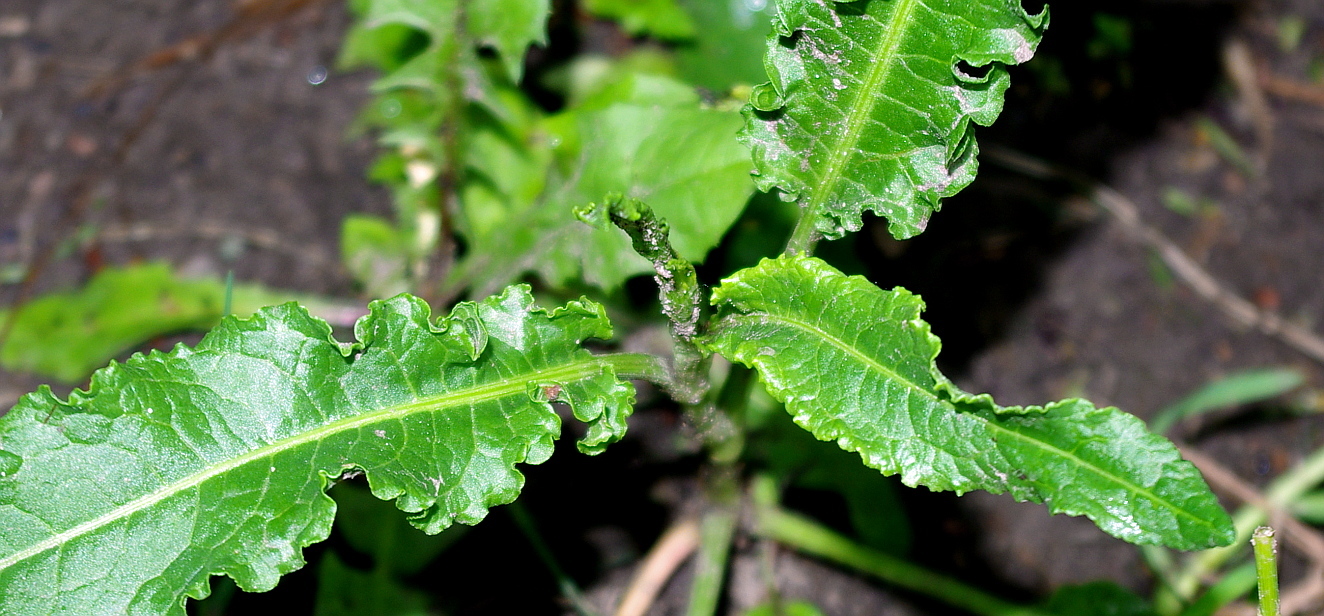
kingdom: Plantae
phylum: Tracheophyta
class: Magnoliopsida
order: Caryophyllales
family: Polygonaceae
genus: Rumex
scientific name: Rumex crispus
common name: Curled dock
